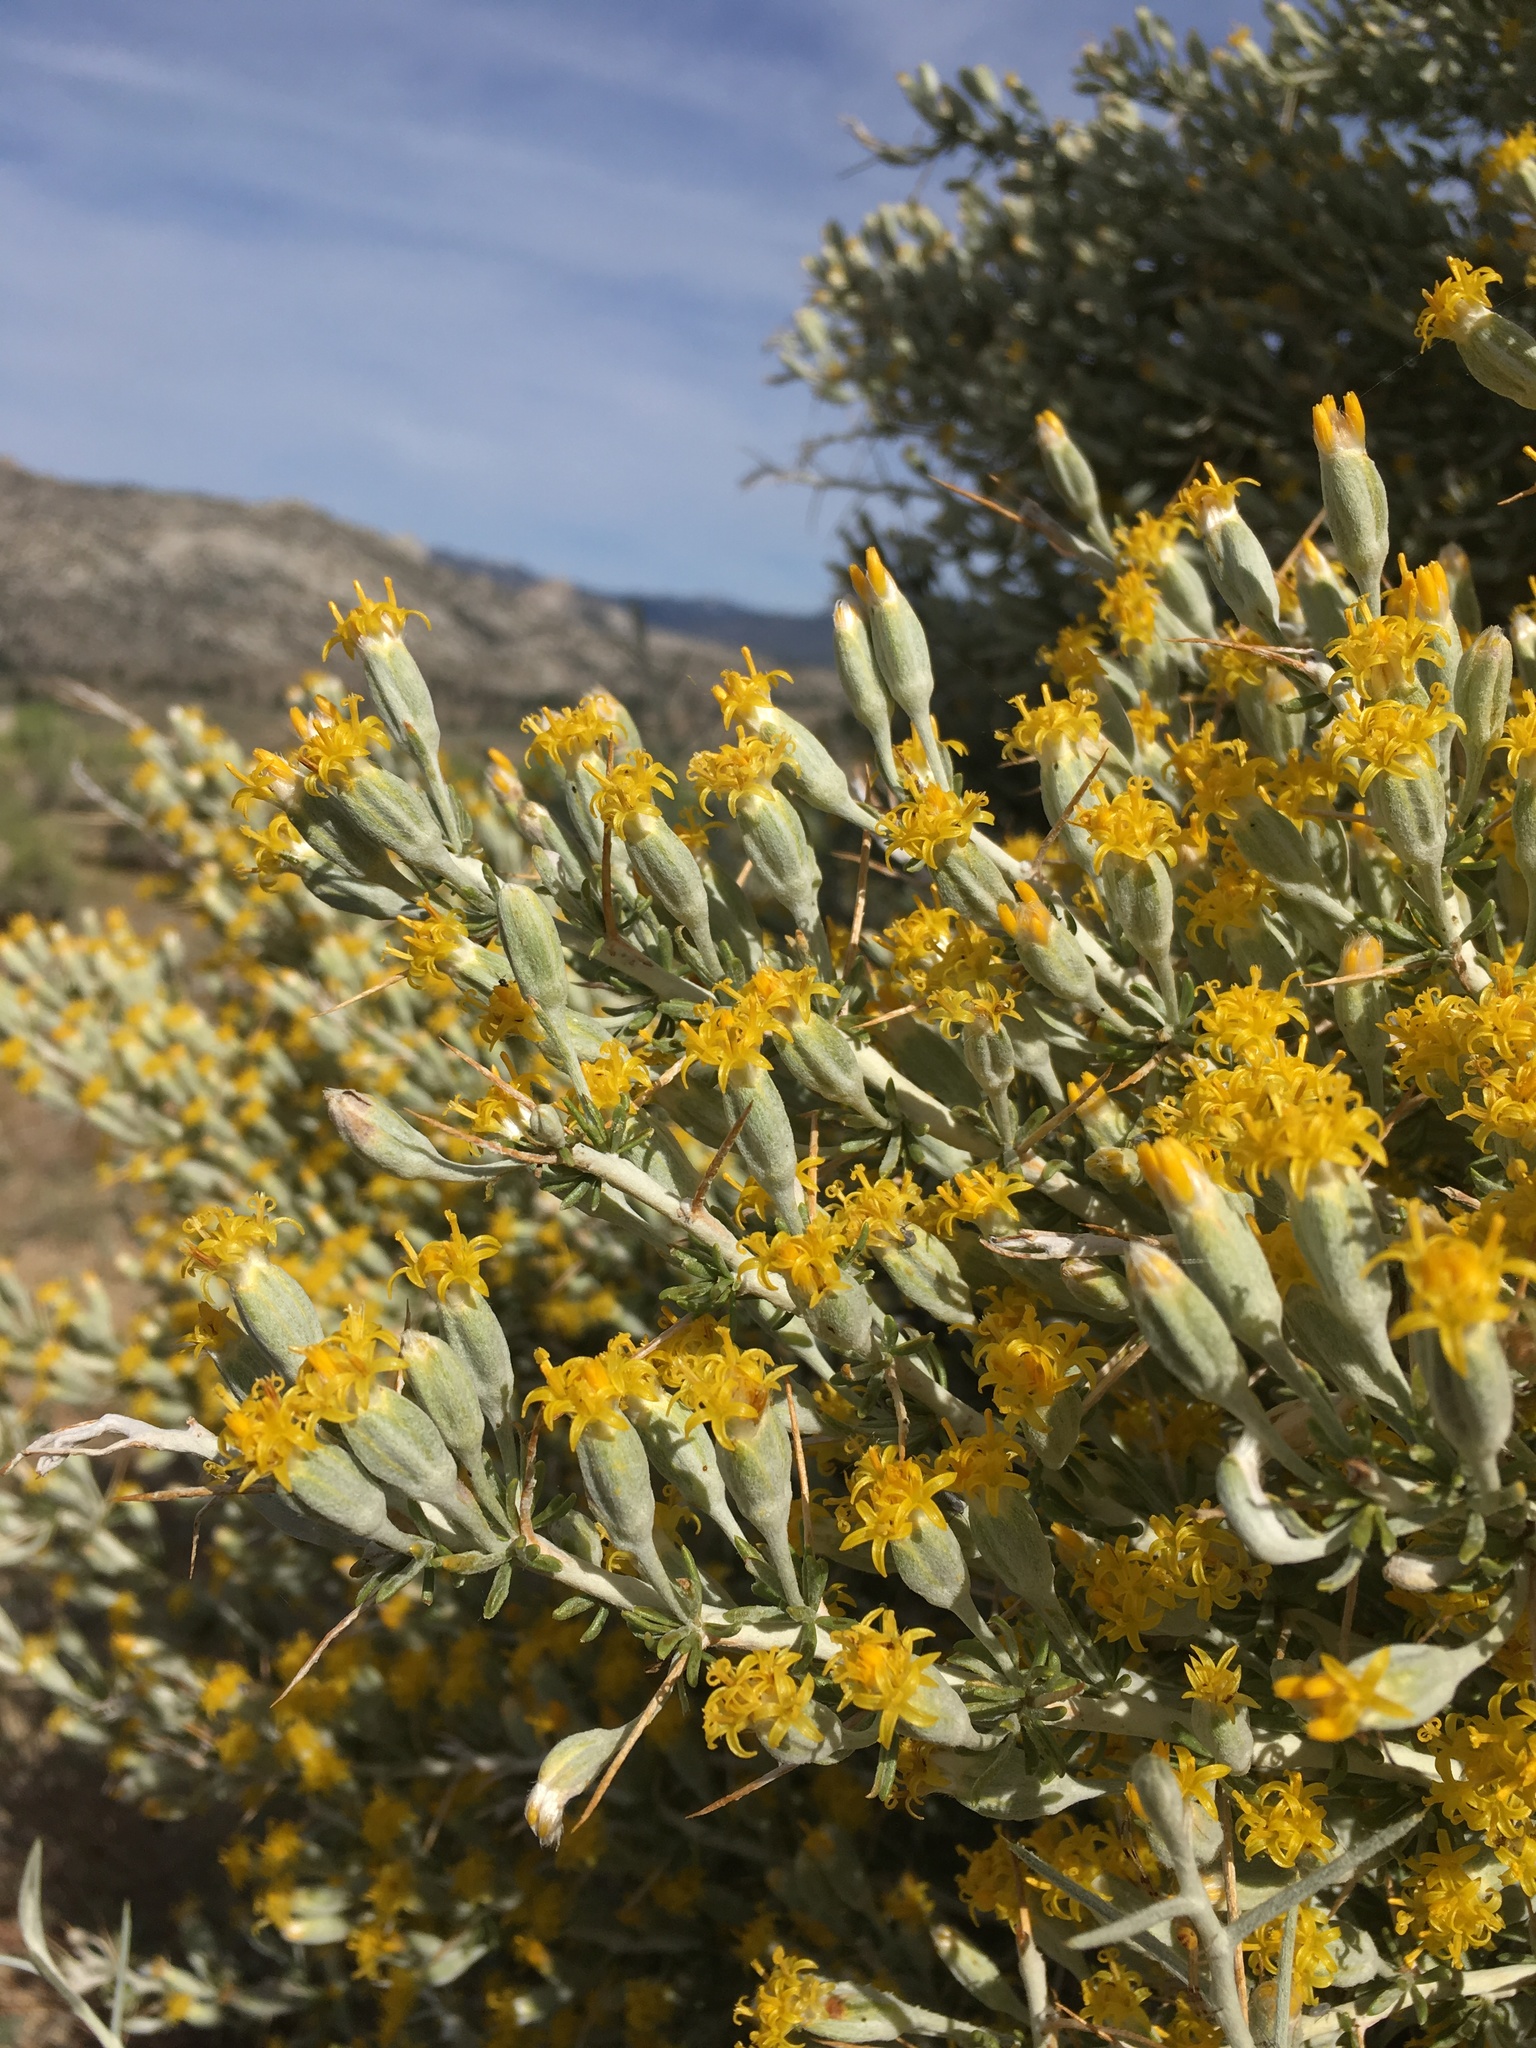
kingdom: Plantae
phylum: Tracheophyta
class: Magnoliopsida
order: Asterales
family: Asteraceae
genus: Tetradymia
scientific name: Tetradymia axillaris
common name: Long-spine horsebrush
